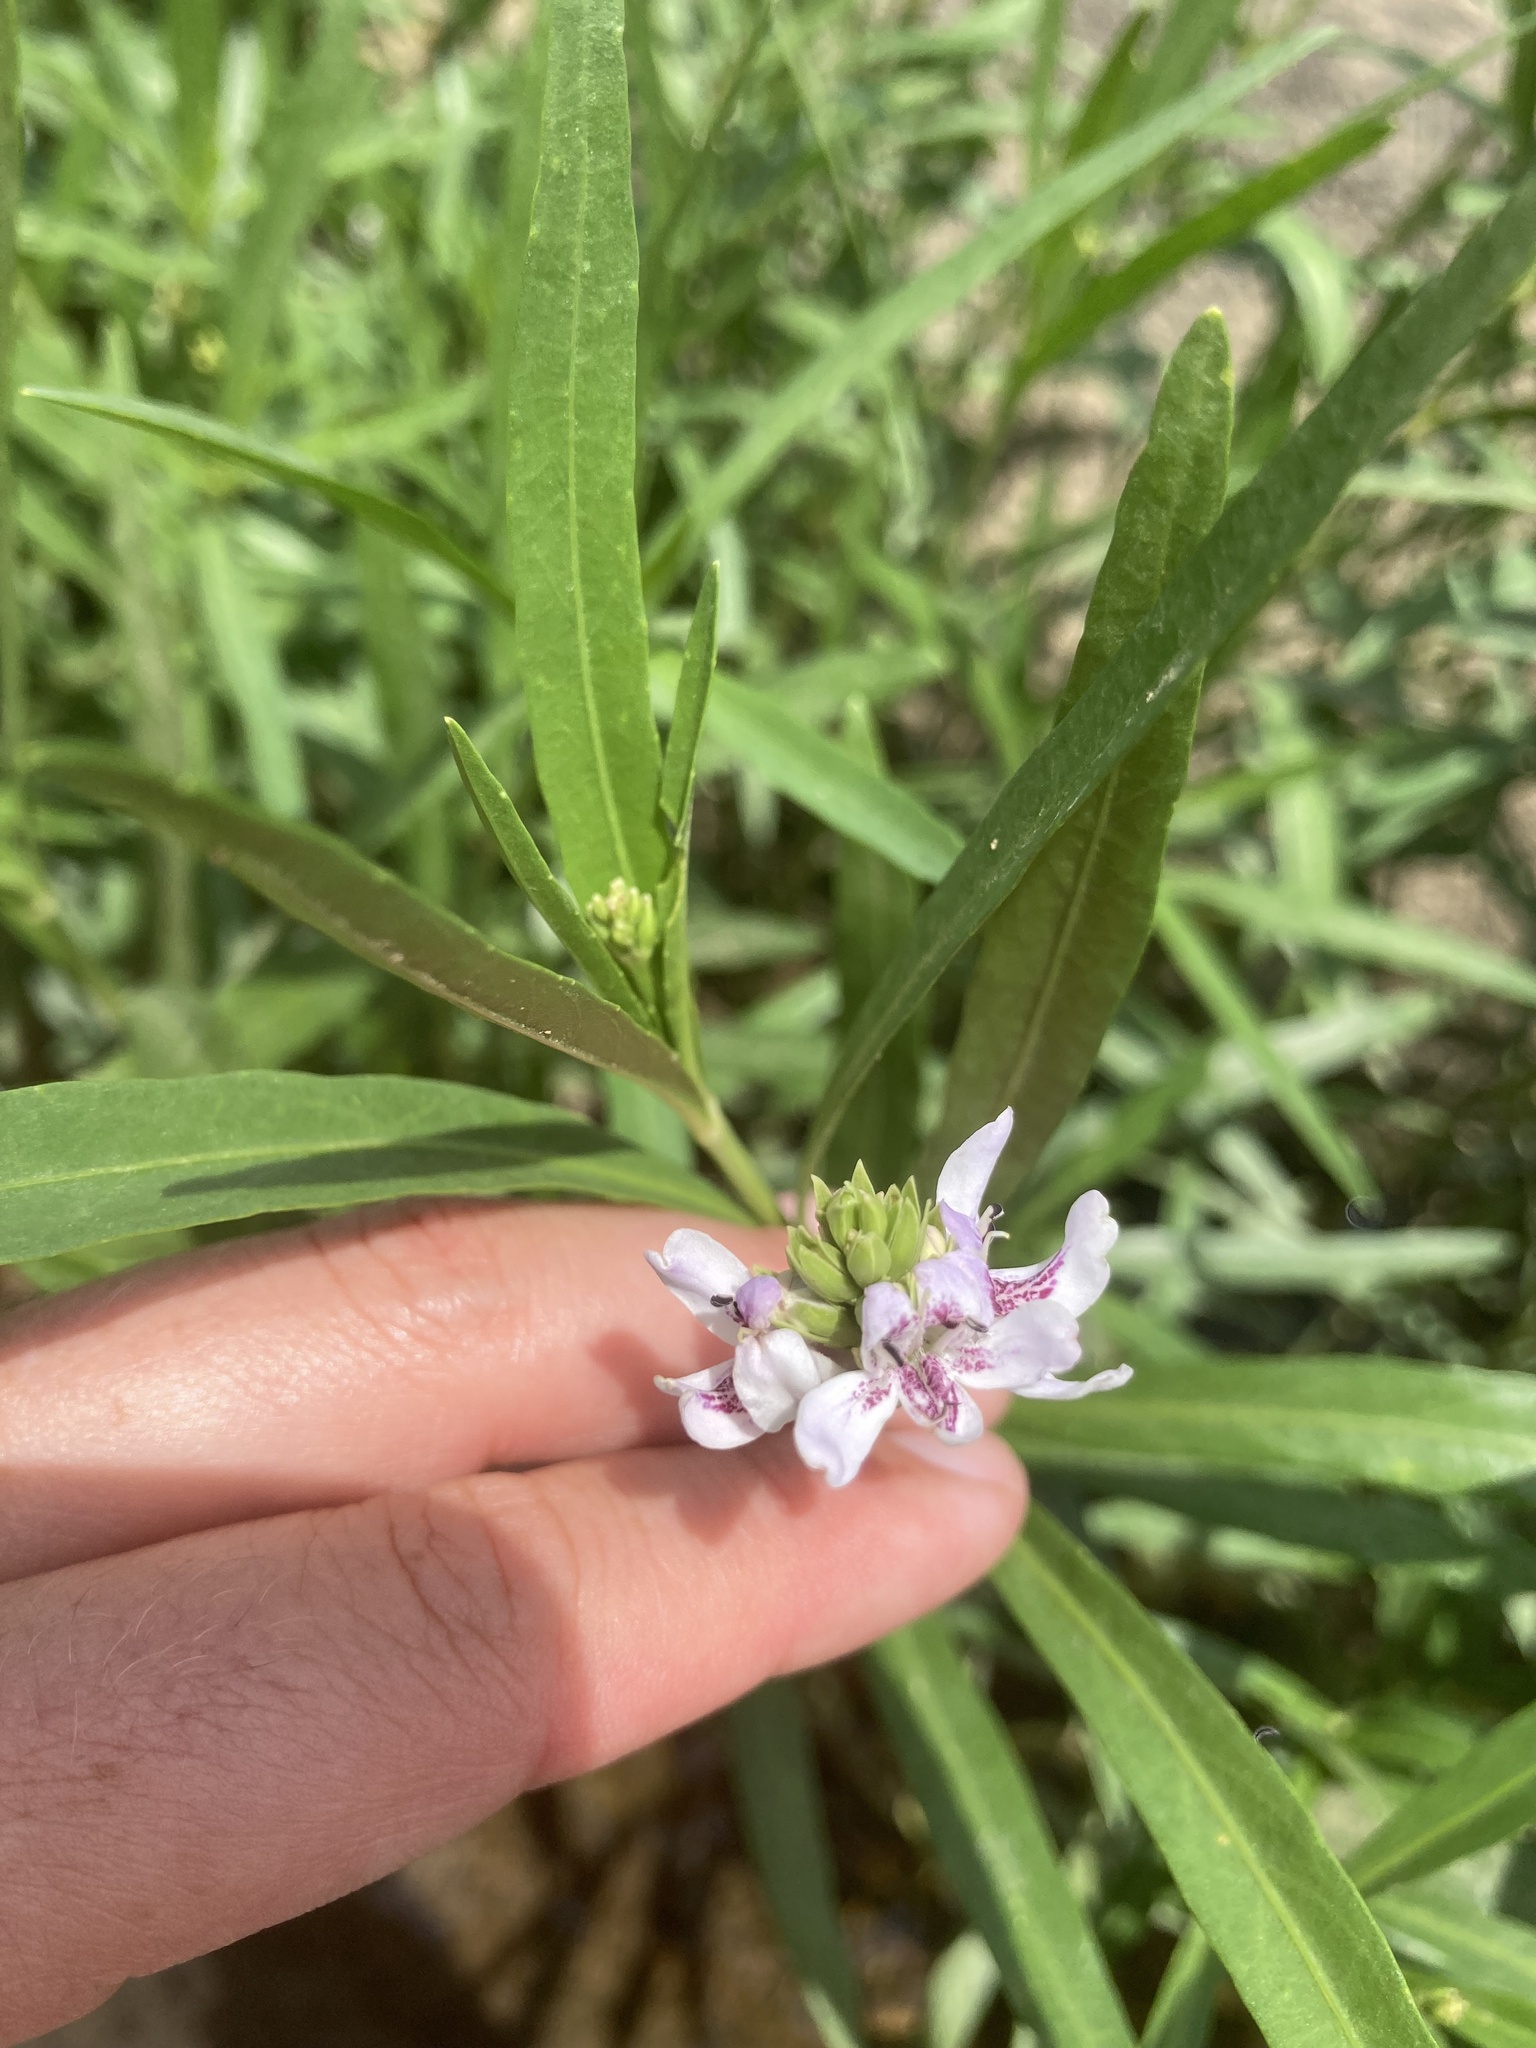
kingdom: Plantae
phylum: Tracheophyta
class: Magnoliopsida
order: Lamiales
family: Acanthaceae
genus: Dianthera
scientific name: Dianthera americana
